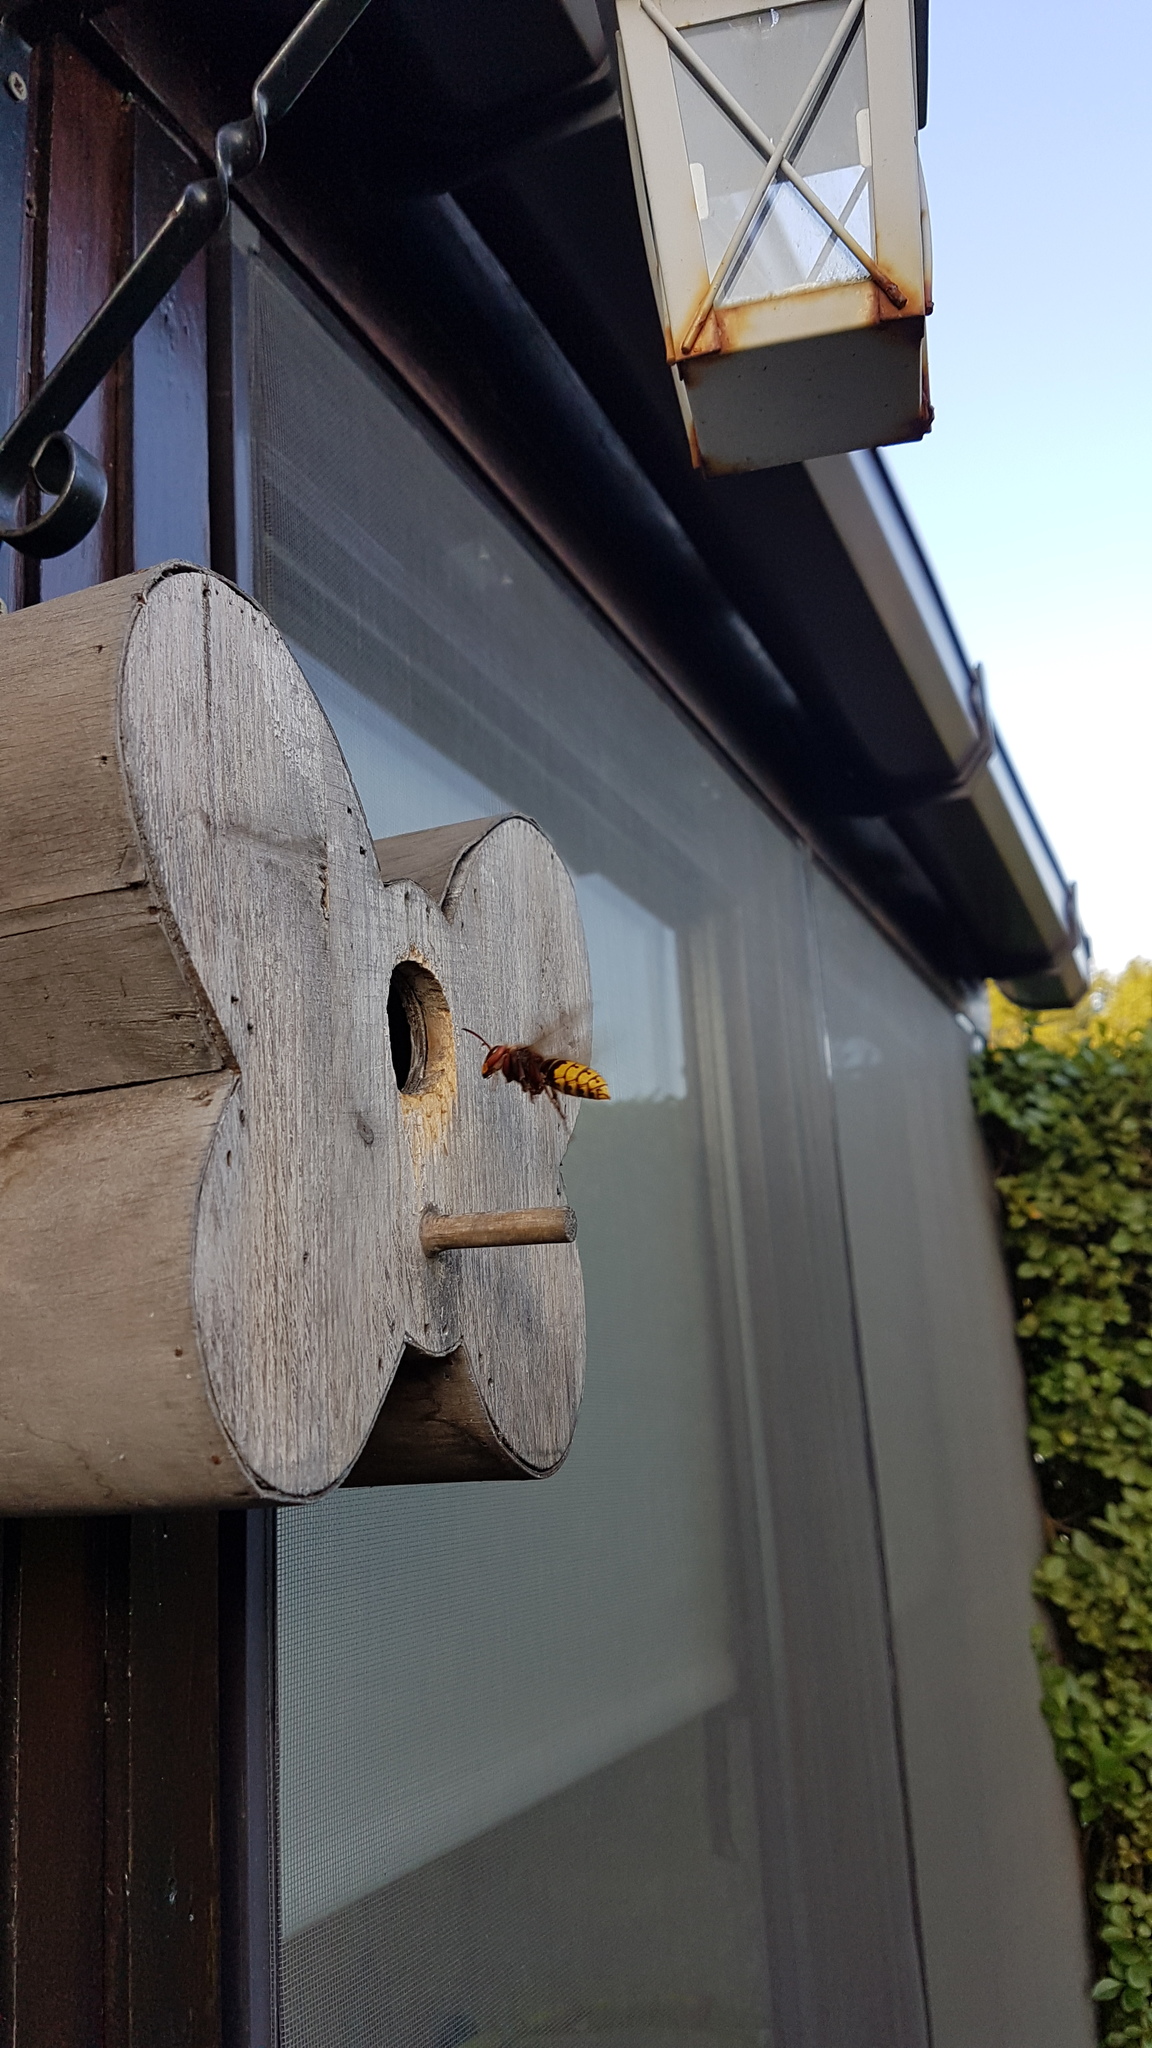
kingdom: Animalia
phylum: Arthropoda
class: Insecta
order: Hymenoptera
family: Vespidae
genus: Vespa
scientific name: Vespa crabro
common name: Hornet
